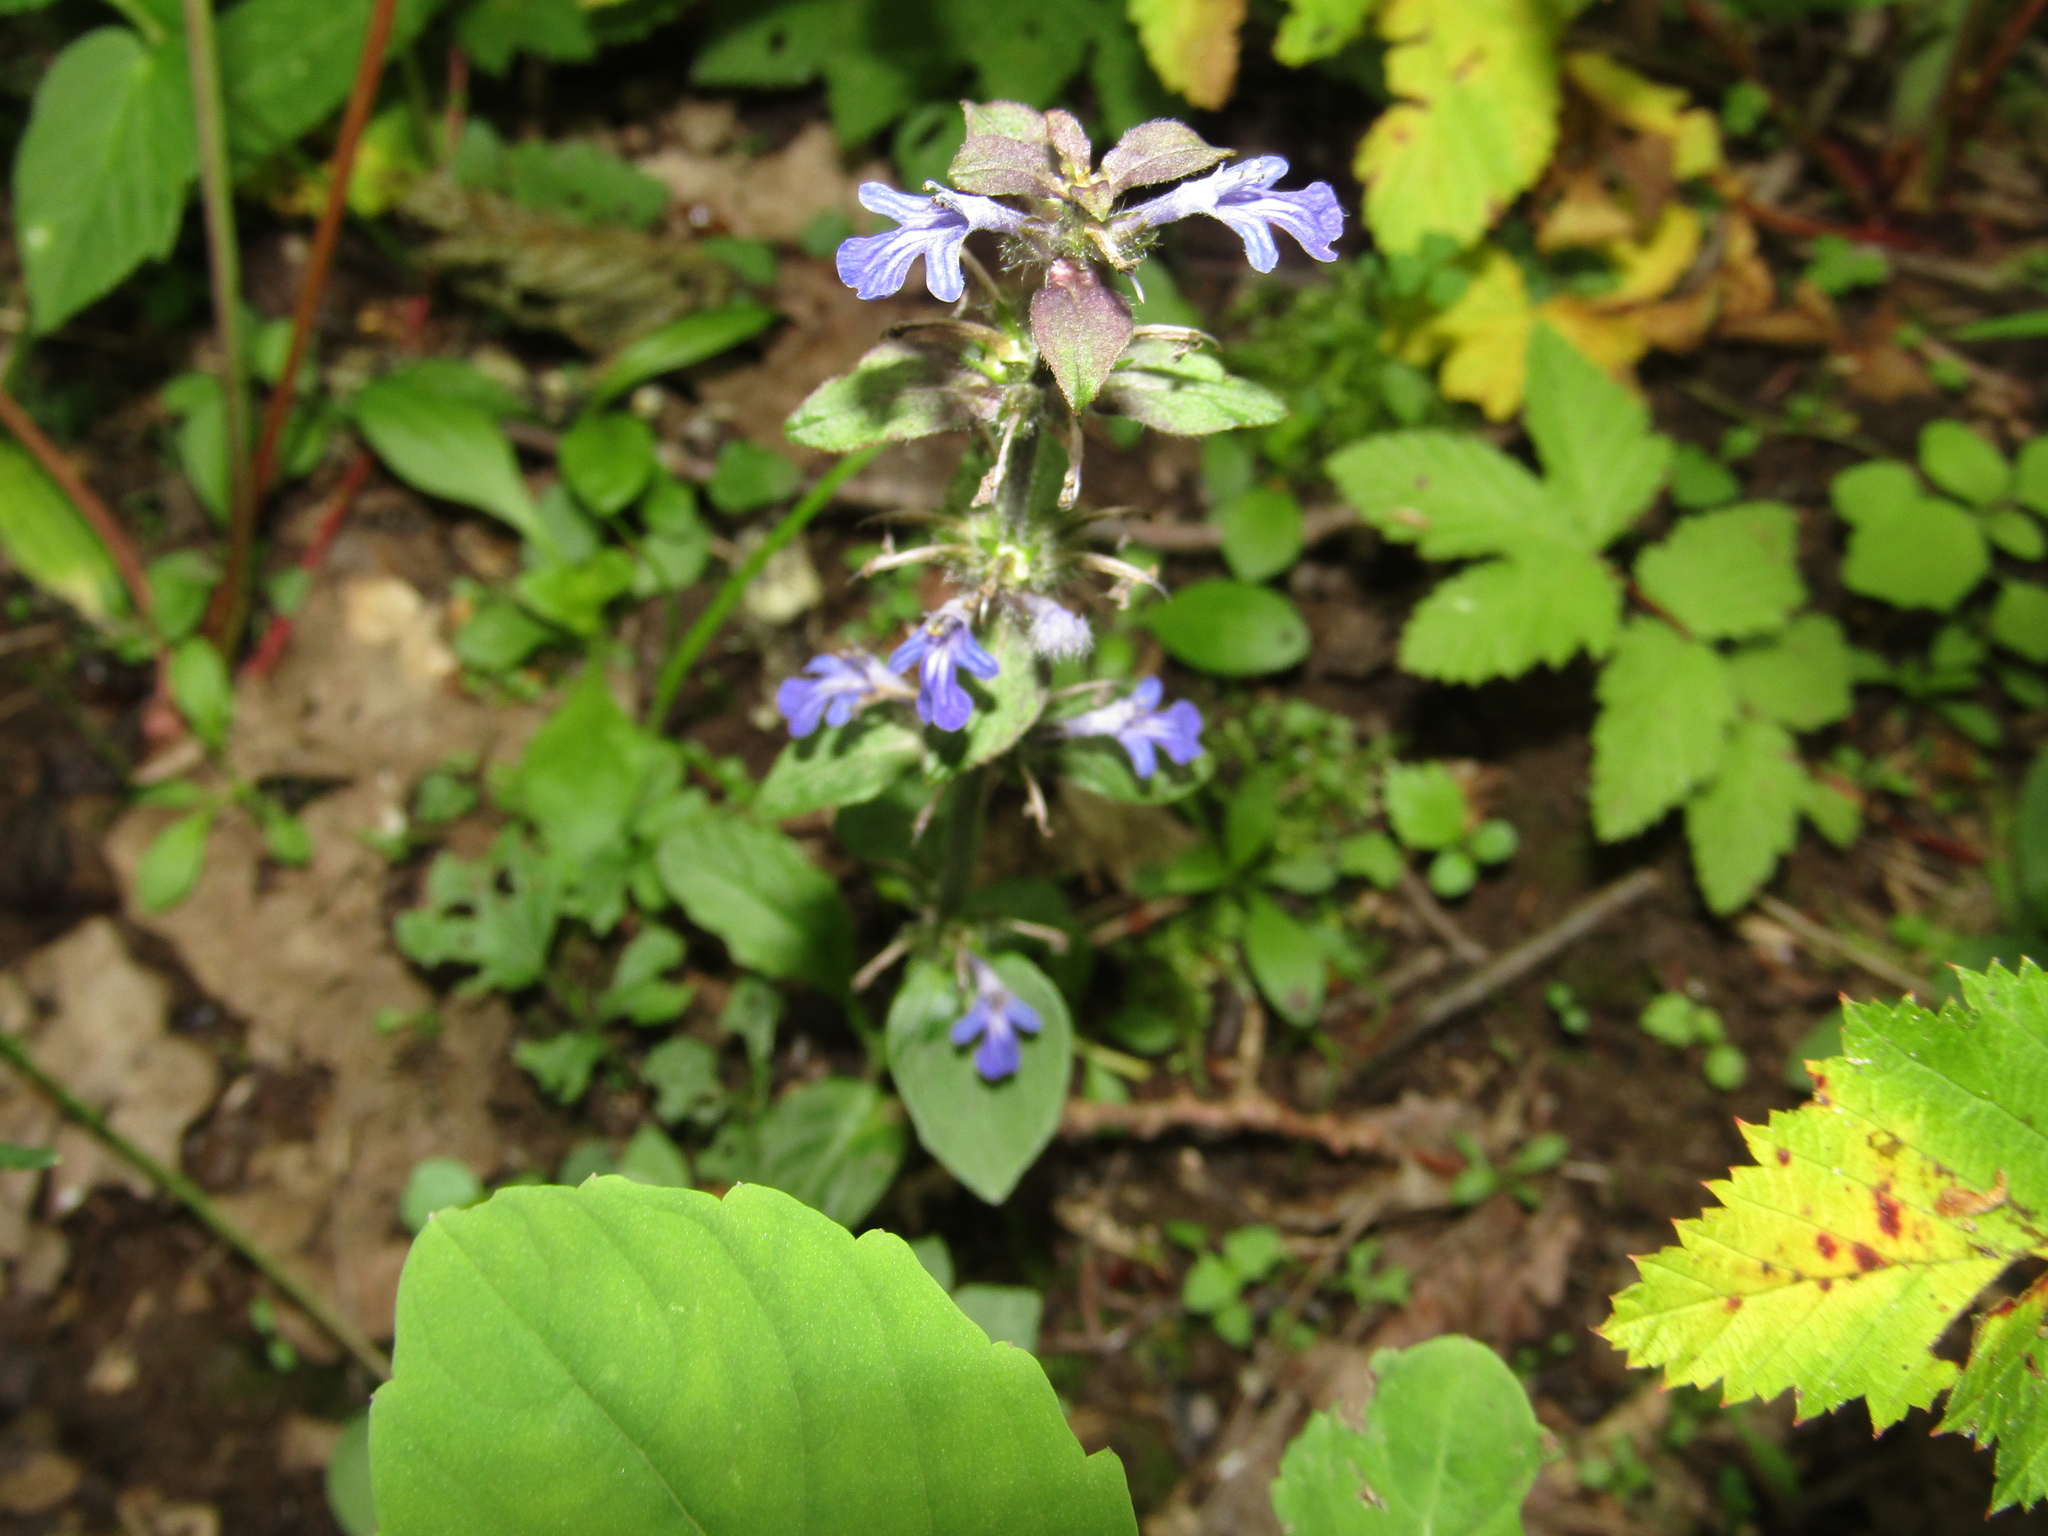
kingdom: Plantae
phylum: Tracheophyta
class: Magnoliopsida
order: Lamiales
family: Lamiaceae
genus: Ajuga
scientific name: Ajuga reptans
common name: Bugle
